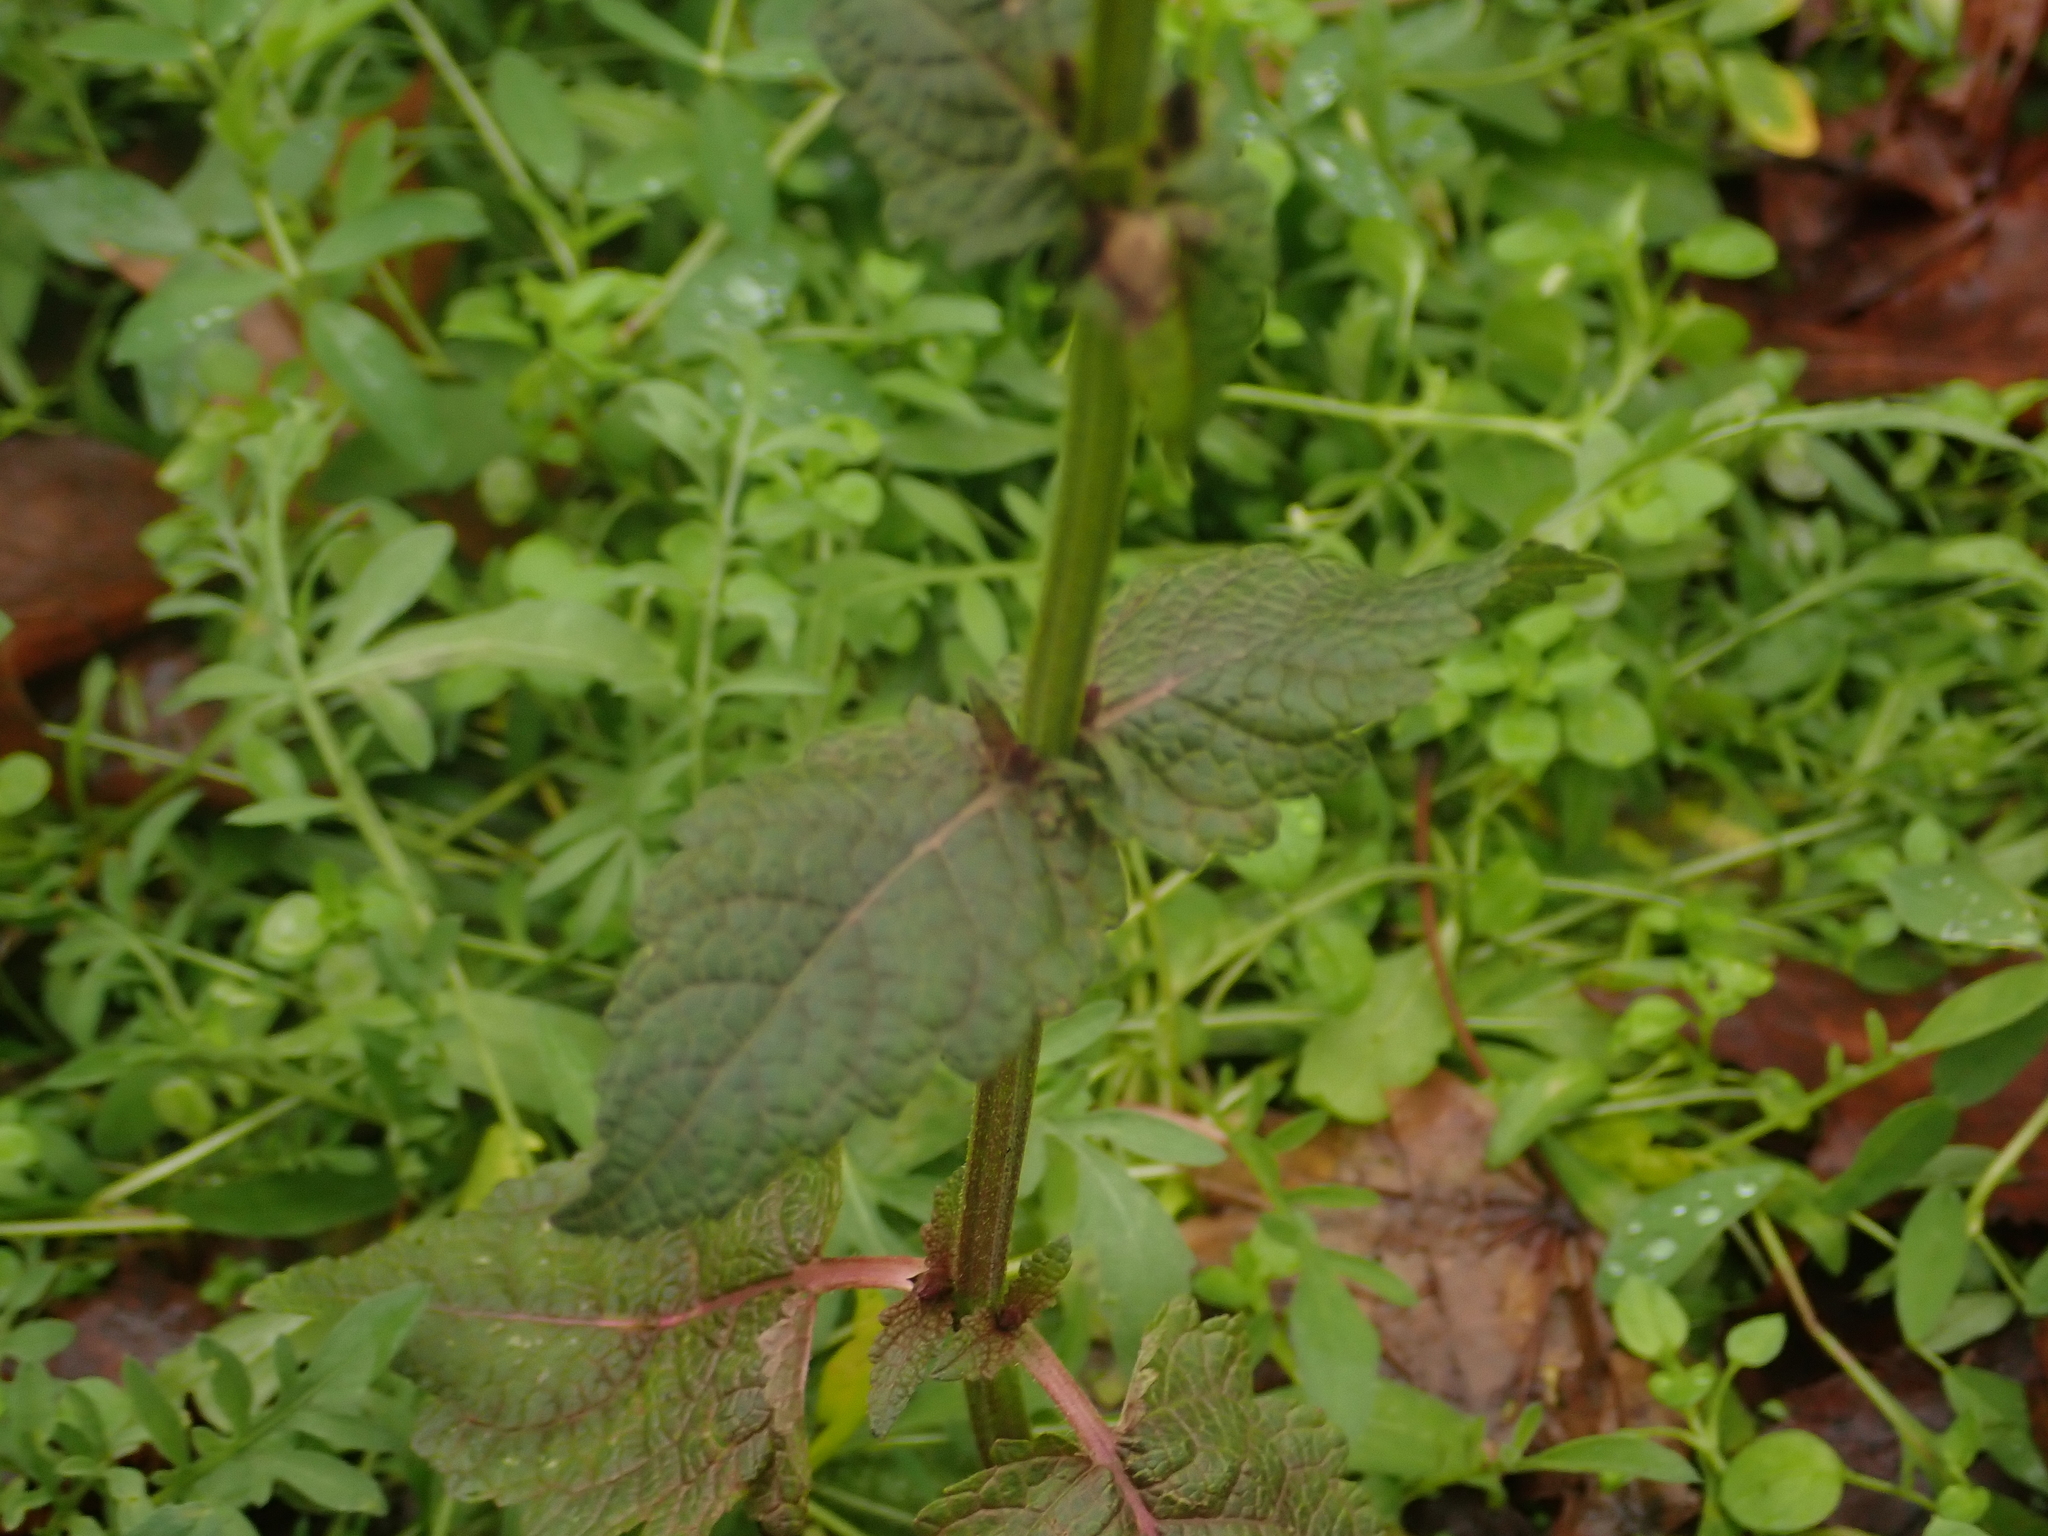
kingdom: Plantae
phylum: Tracheophyta
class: Magnoliopsida
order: Lamiales
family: Lamiaceae
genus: Salvia
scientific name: Salvia pratensis
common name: Meadow sage
